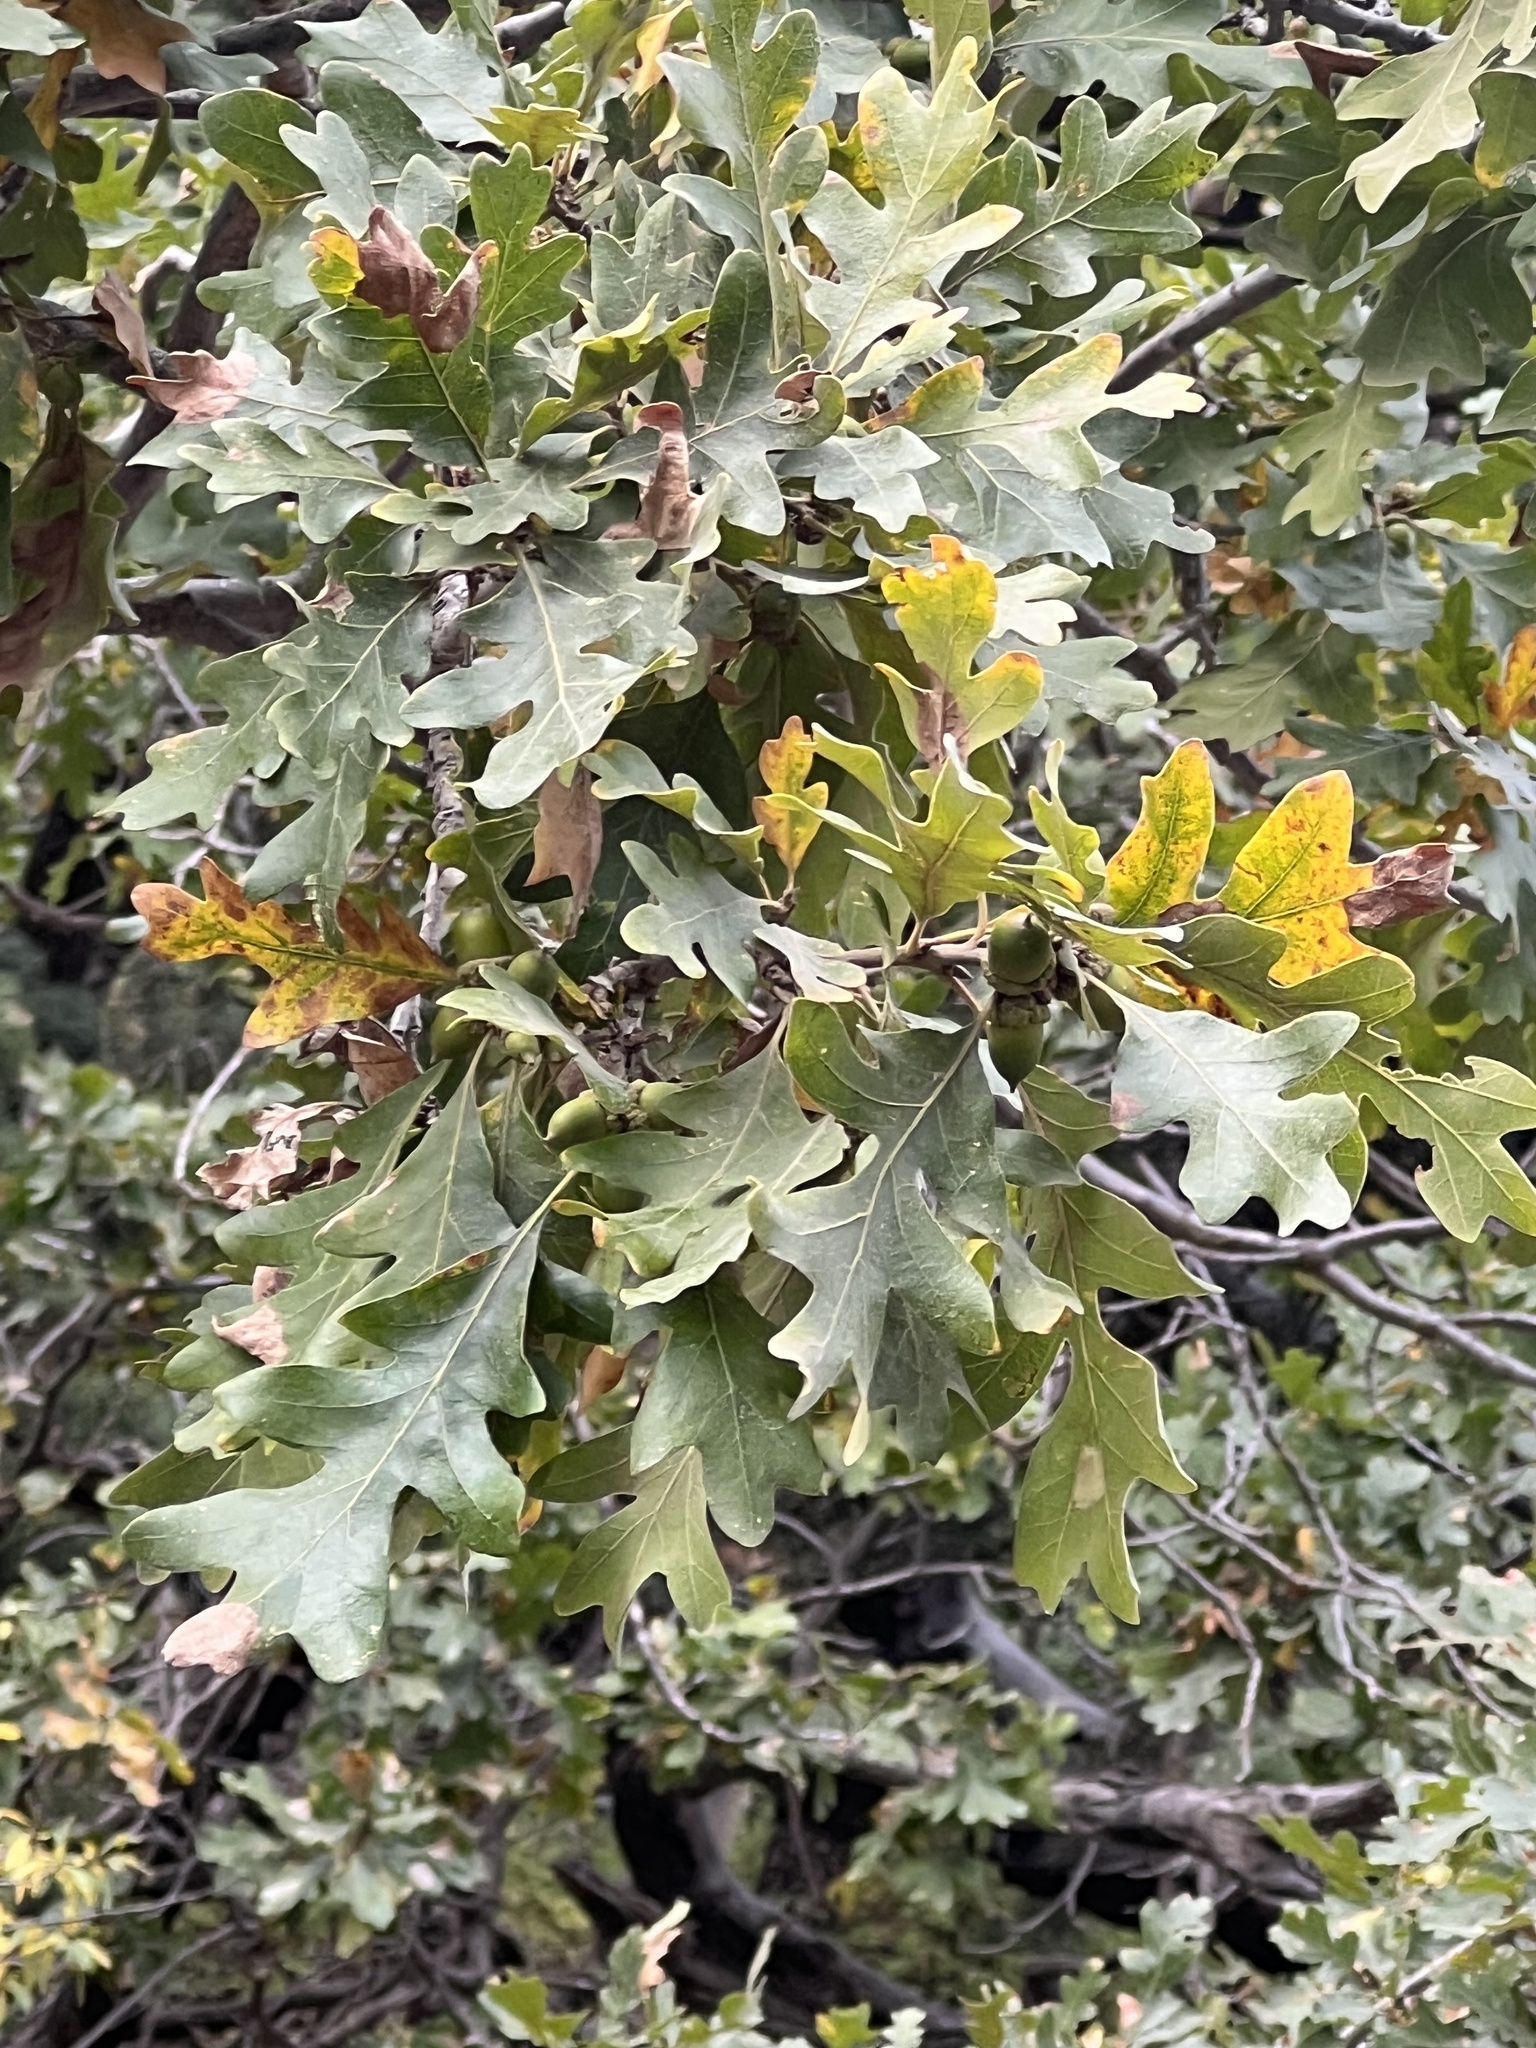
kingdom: Plantae
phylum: Tracheophyta
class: Magnoliopsida
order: Fagales
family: Fagaceae
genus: Quercus
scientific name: Quercus gambelii
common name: Gambel oak
